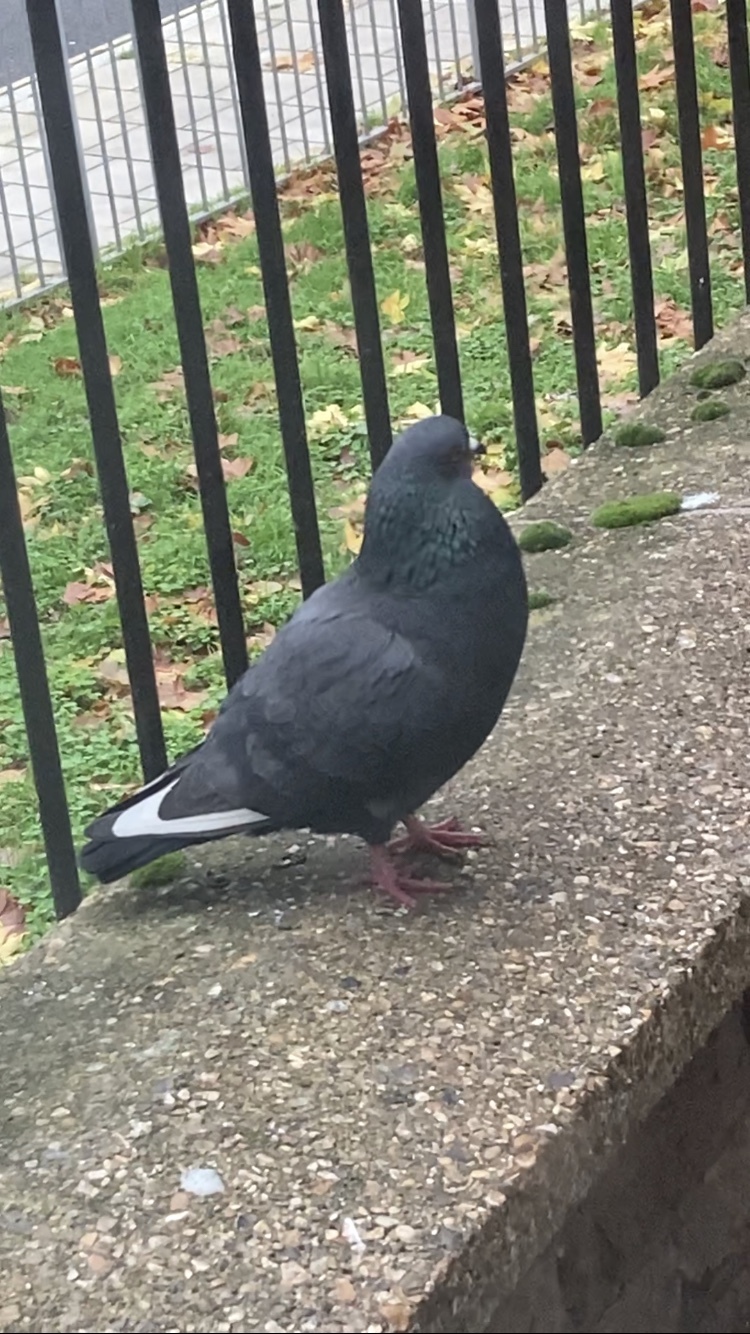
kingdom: Animalia
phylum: Chordata
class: Aves
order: Columbiformes
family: Columbidae
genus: Columba
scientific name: Columba livia
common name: Rock pigeon
